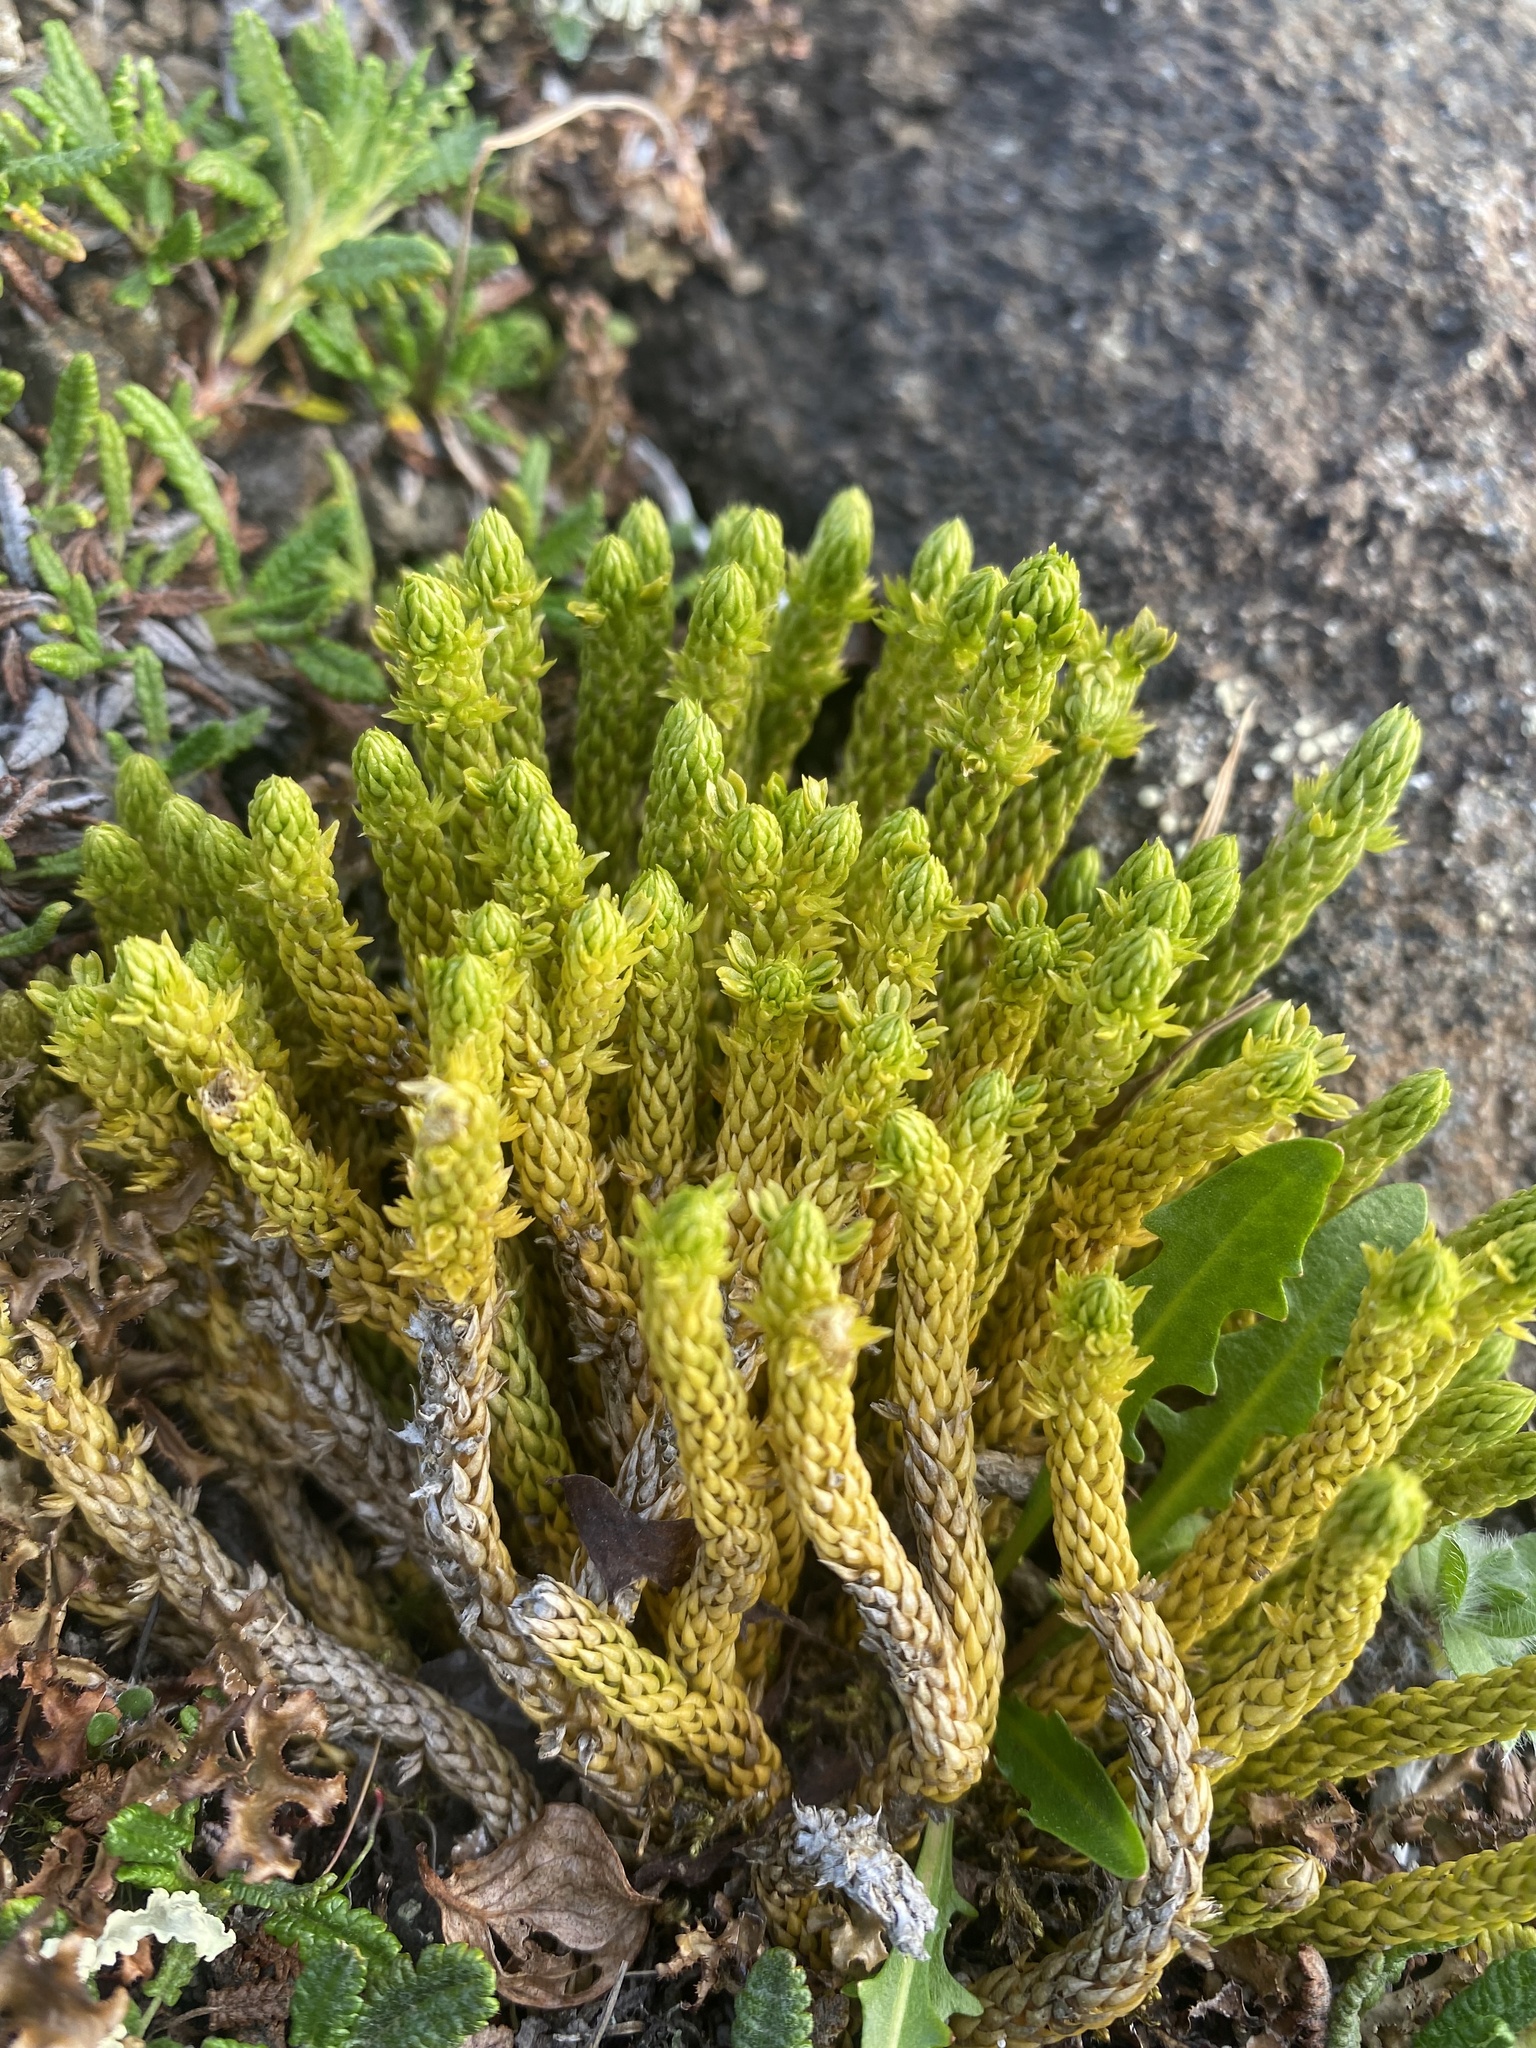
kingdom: Plantae
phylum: Tracheophyta
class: Lycopodiopsida
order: Lycopodiales
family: Lycopodiaceae
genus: Huperzia
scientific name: Huperzia selago
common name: Northern firmoss
